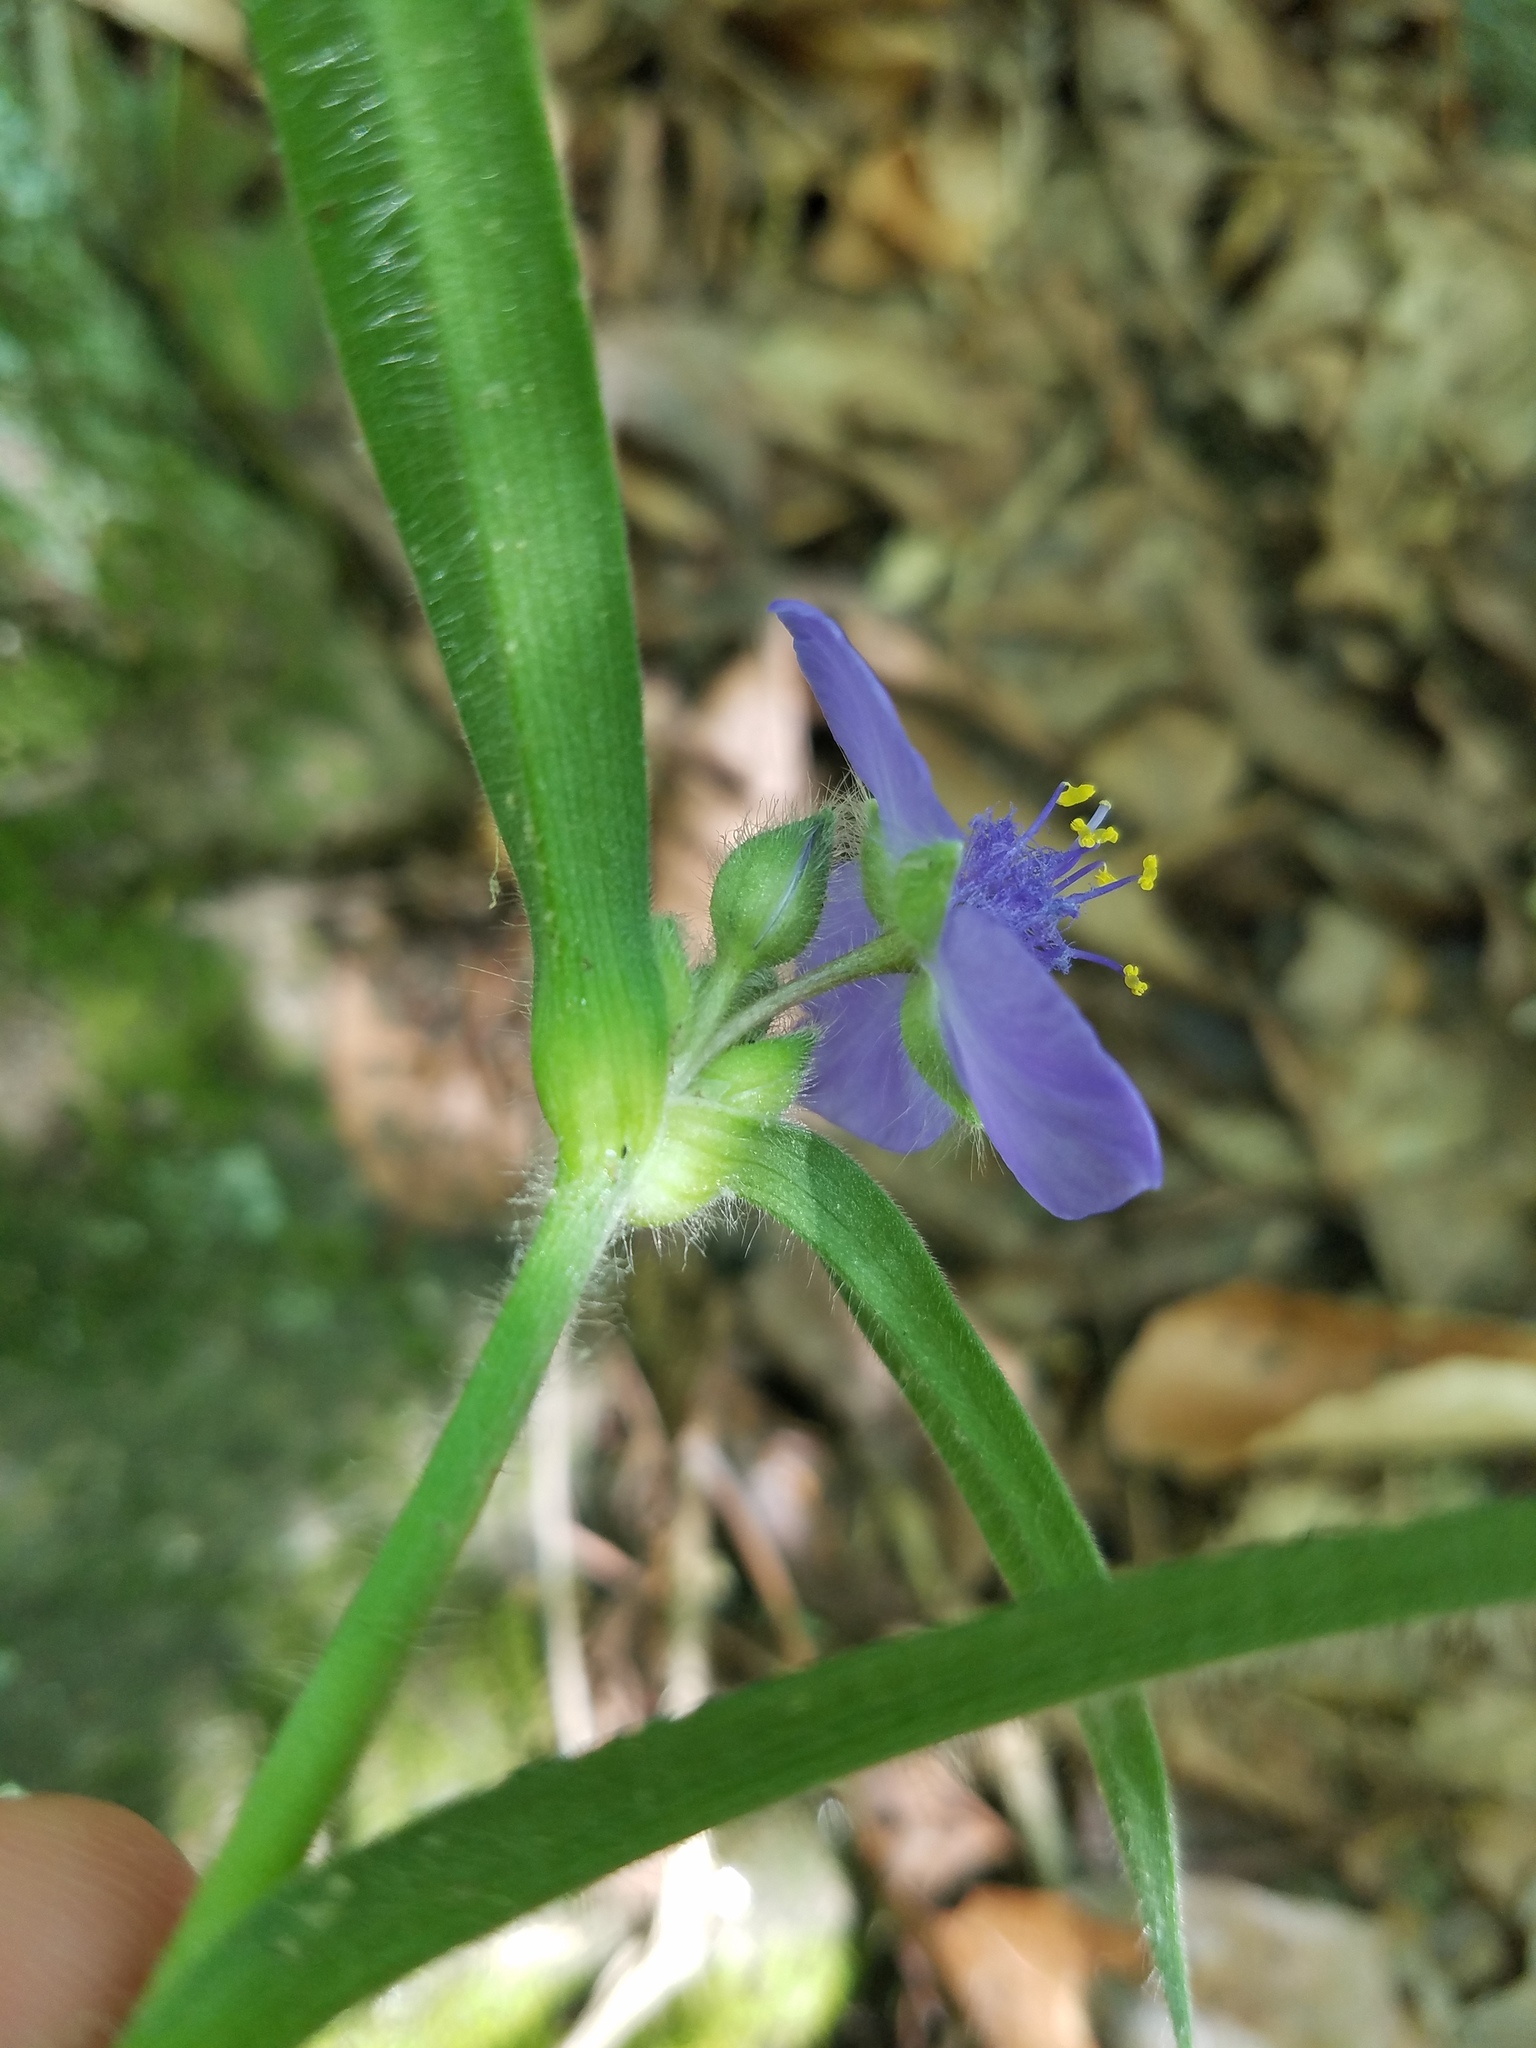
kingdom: Plantae
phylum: Tracheophyta
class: Liliopsida
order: Commelinales
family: Commelinaceae
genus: Tradescantia
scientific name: Tradescantia hirsuticaulis
